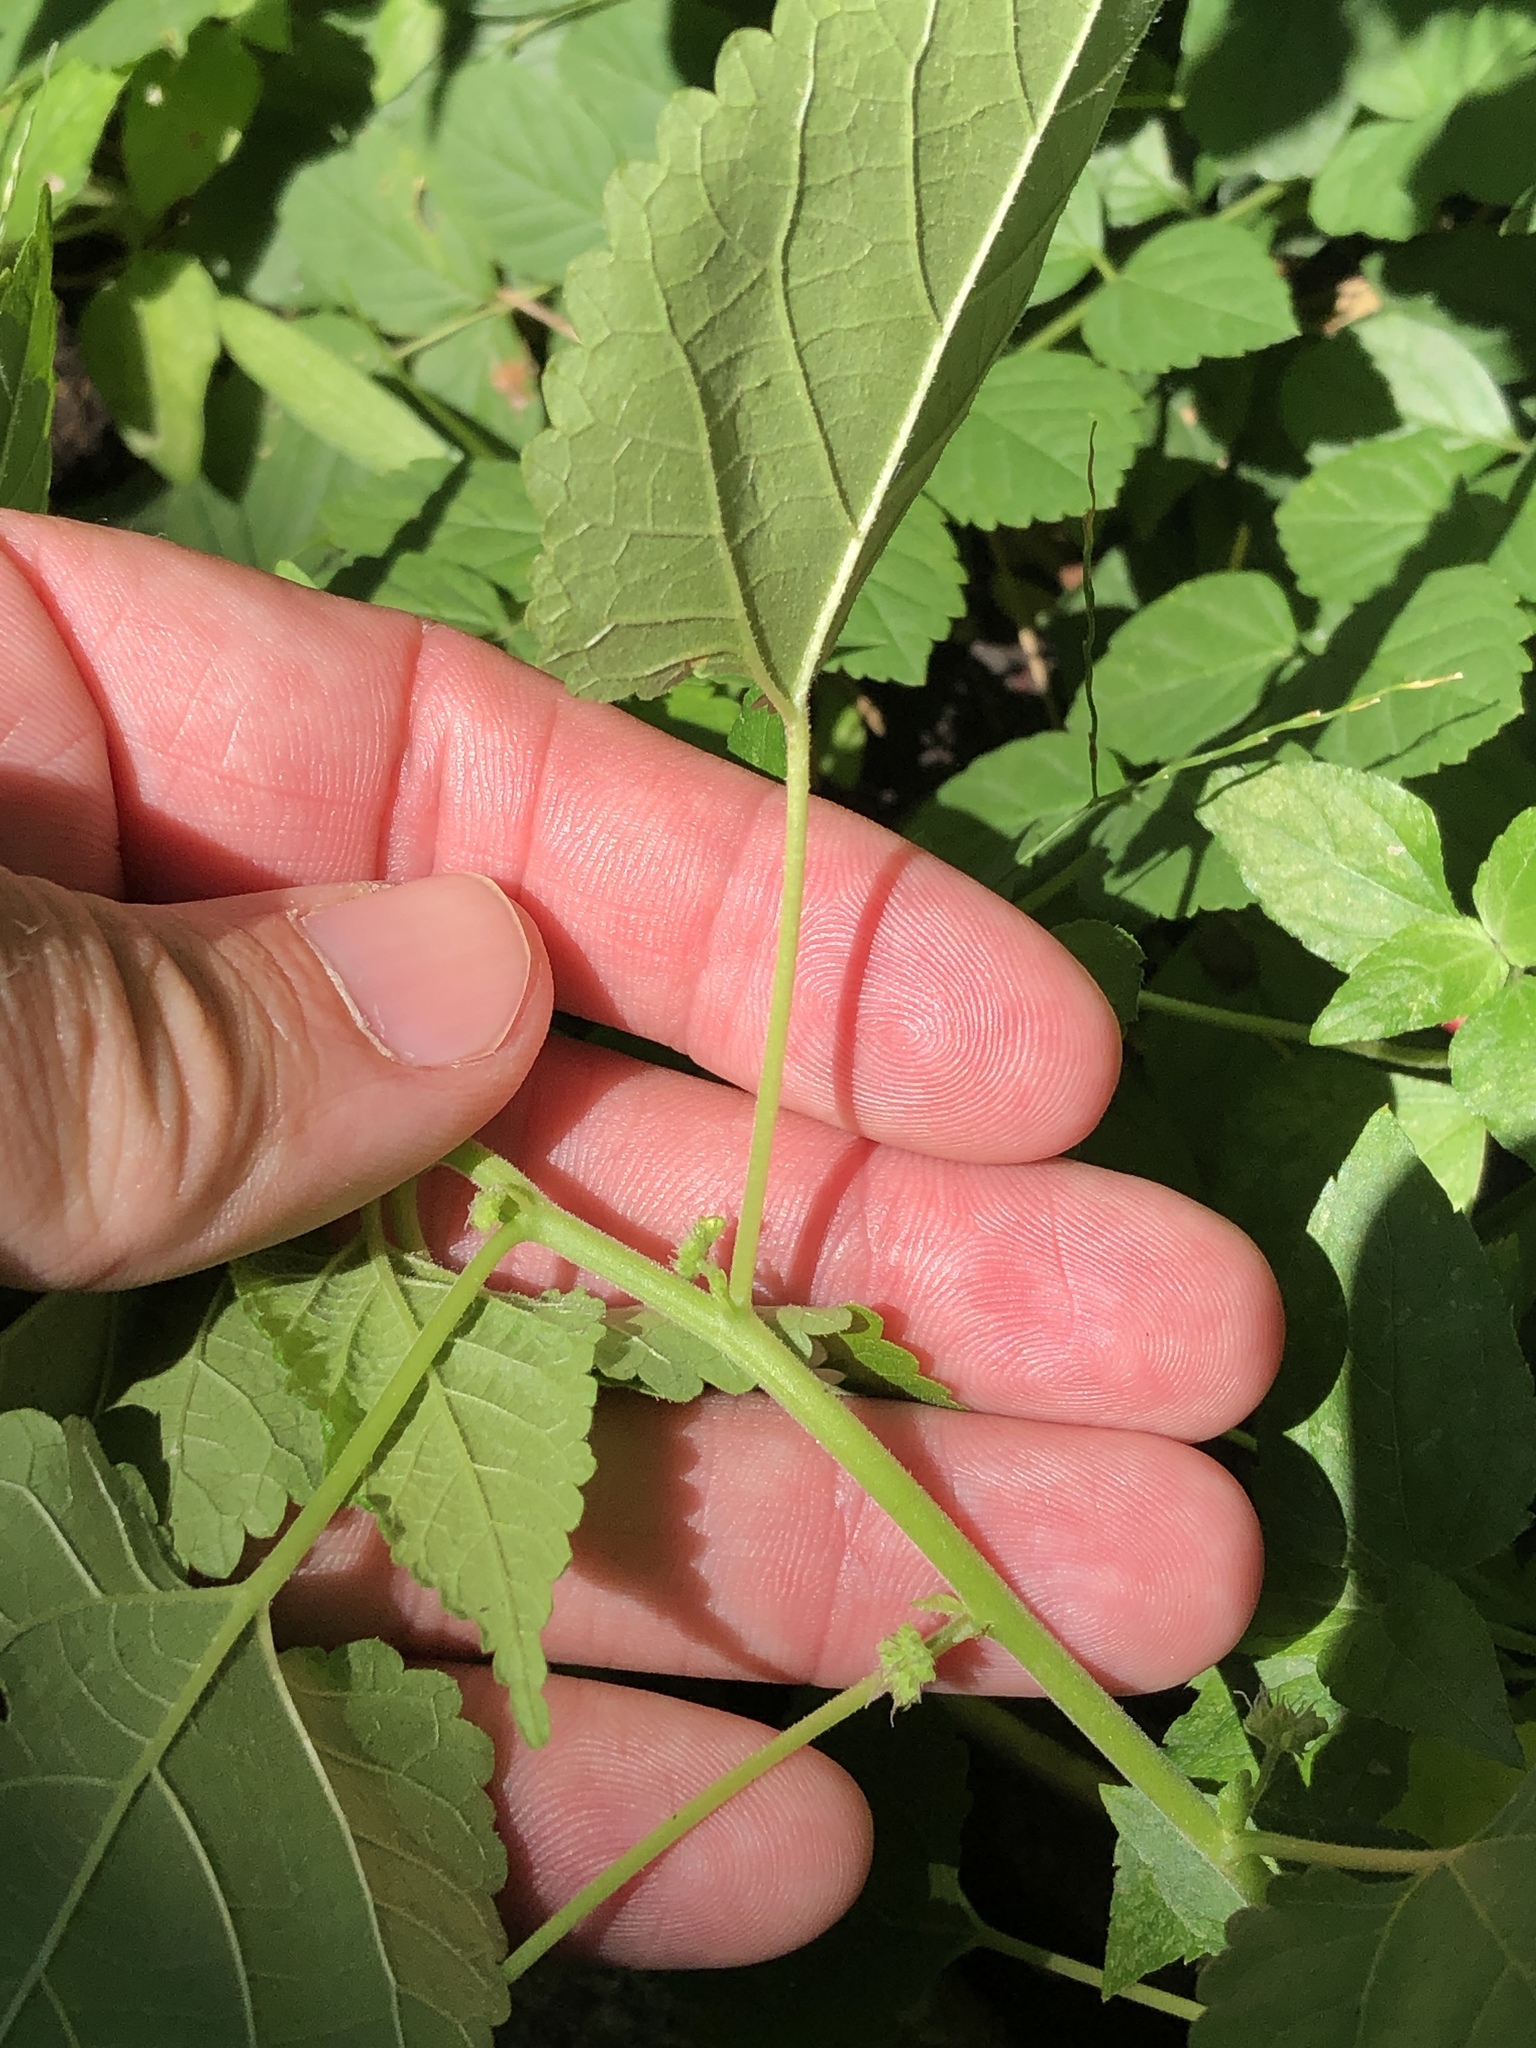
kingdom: Plantae
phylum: Tracheophyta
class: Magnoliopsida
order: Rosales
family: Moraceae
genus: Fatoua
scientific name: Fatoua villosa
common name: Hairy crabweed
